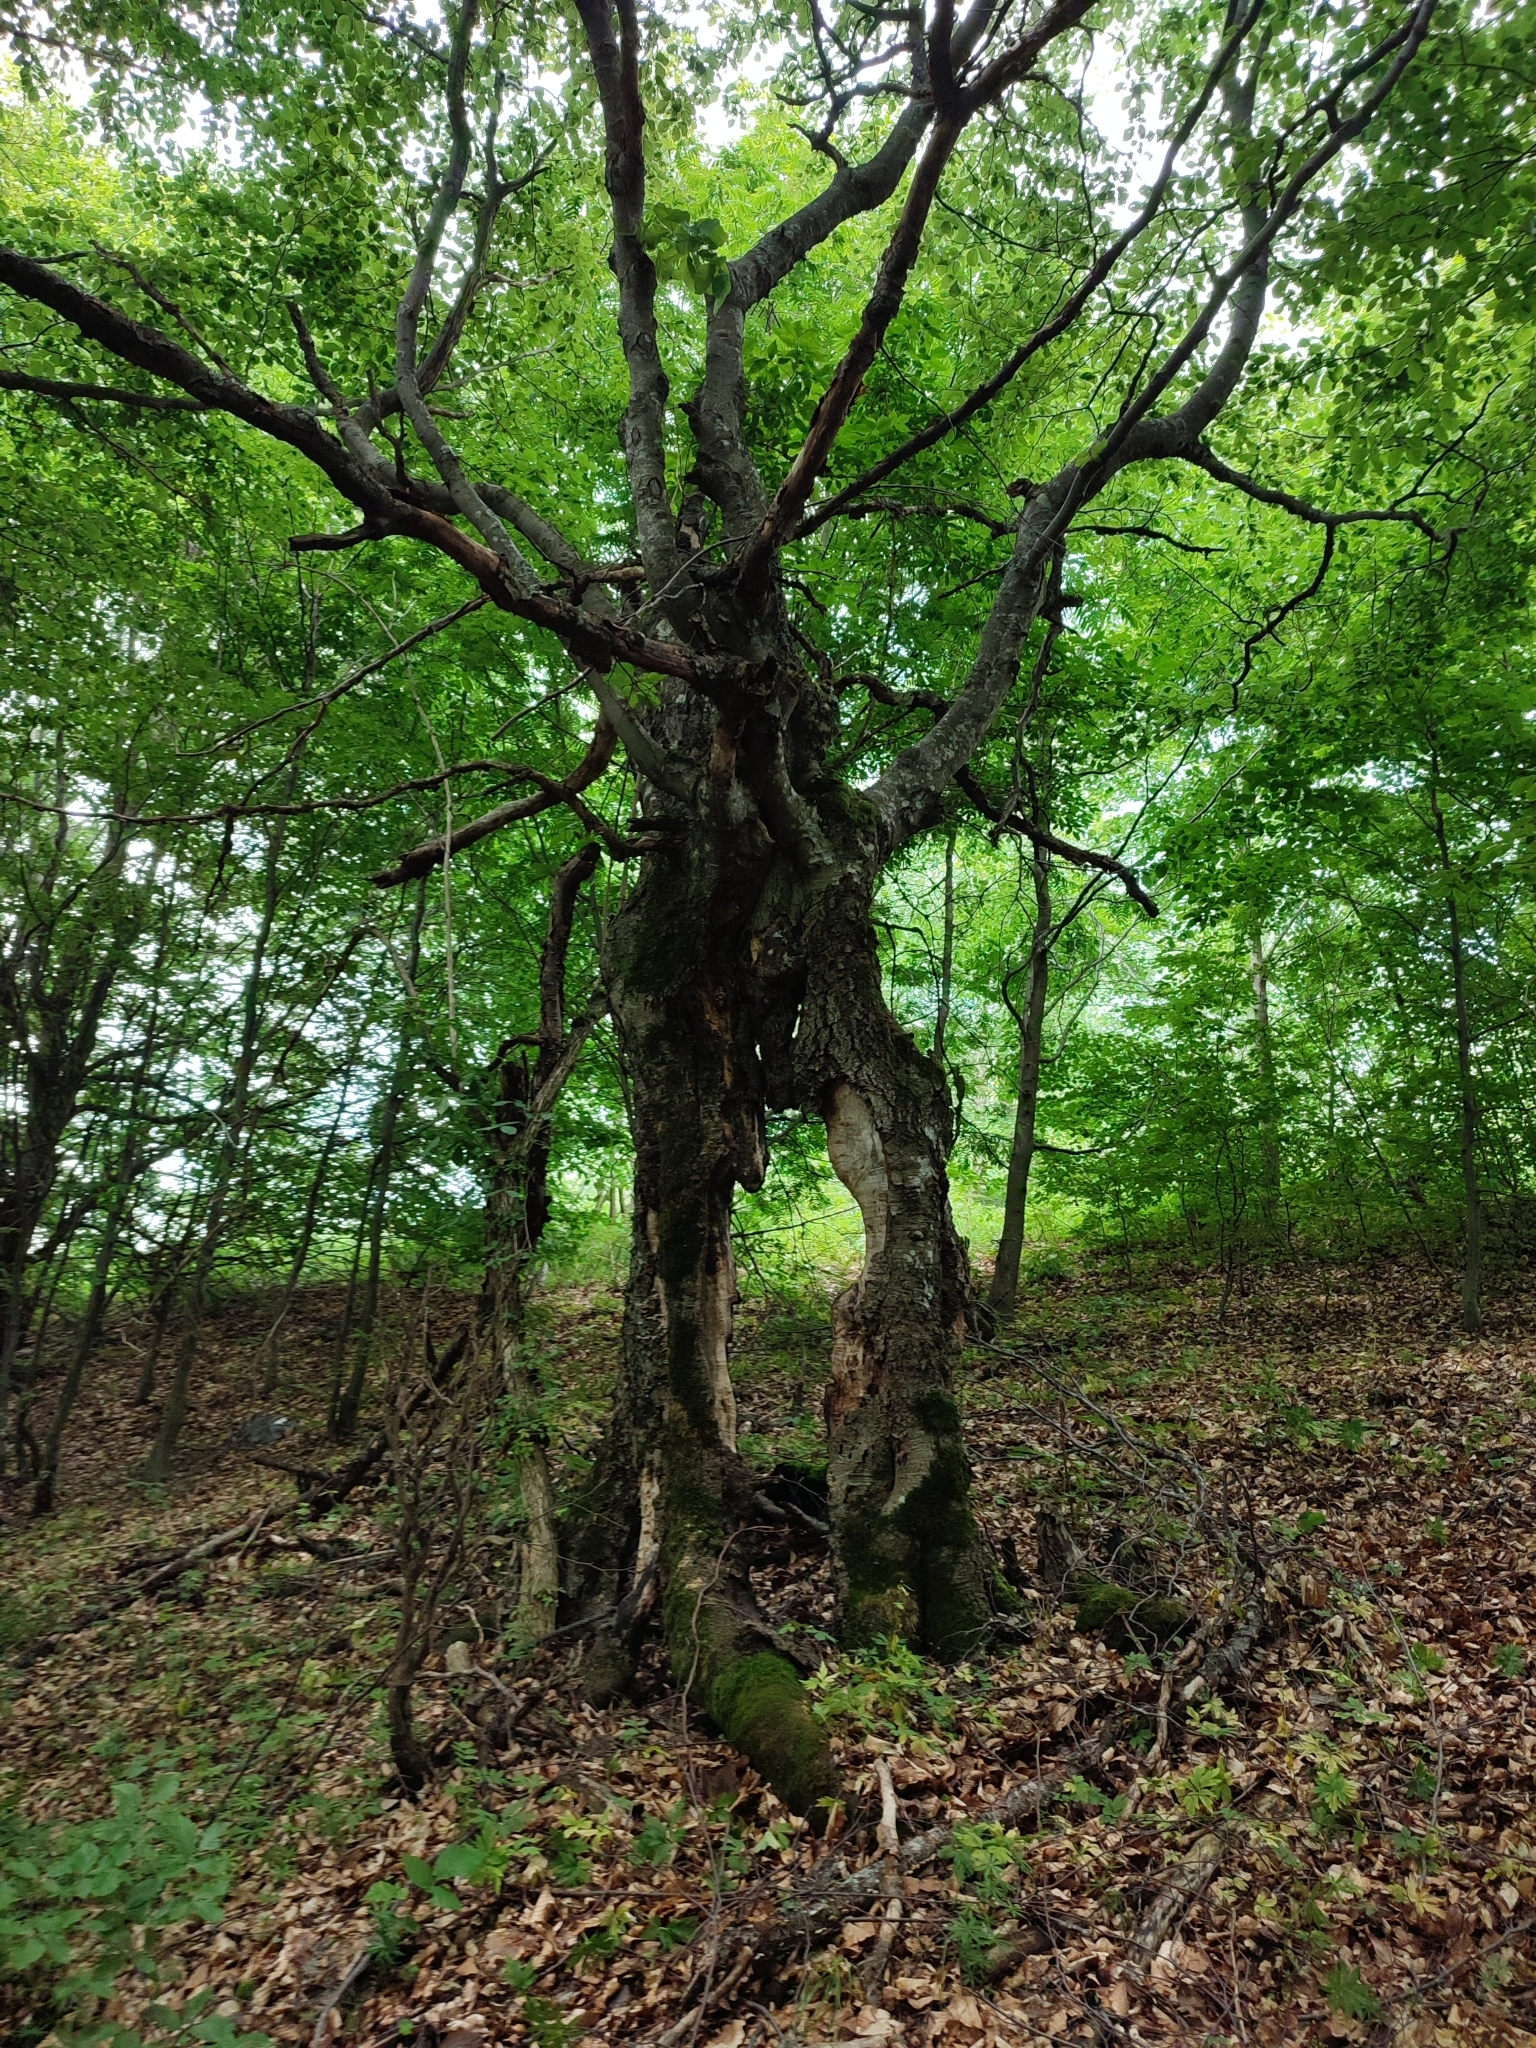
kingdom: Plantae
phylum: Tracheophyta
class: Magnoliopsida
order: Fagales
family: Fagaceae
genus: Fagus
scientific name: Fagus sylvatica
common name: Beech
